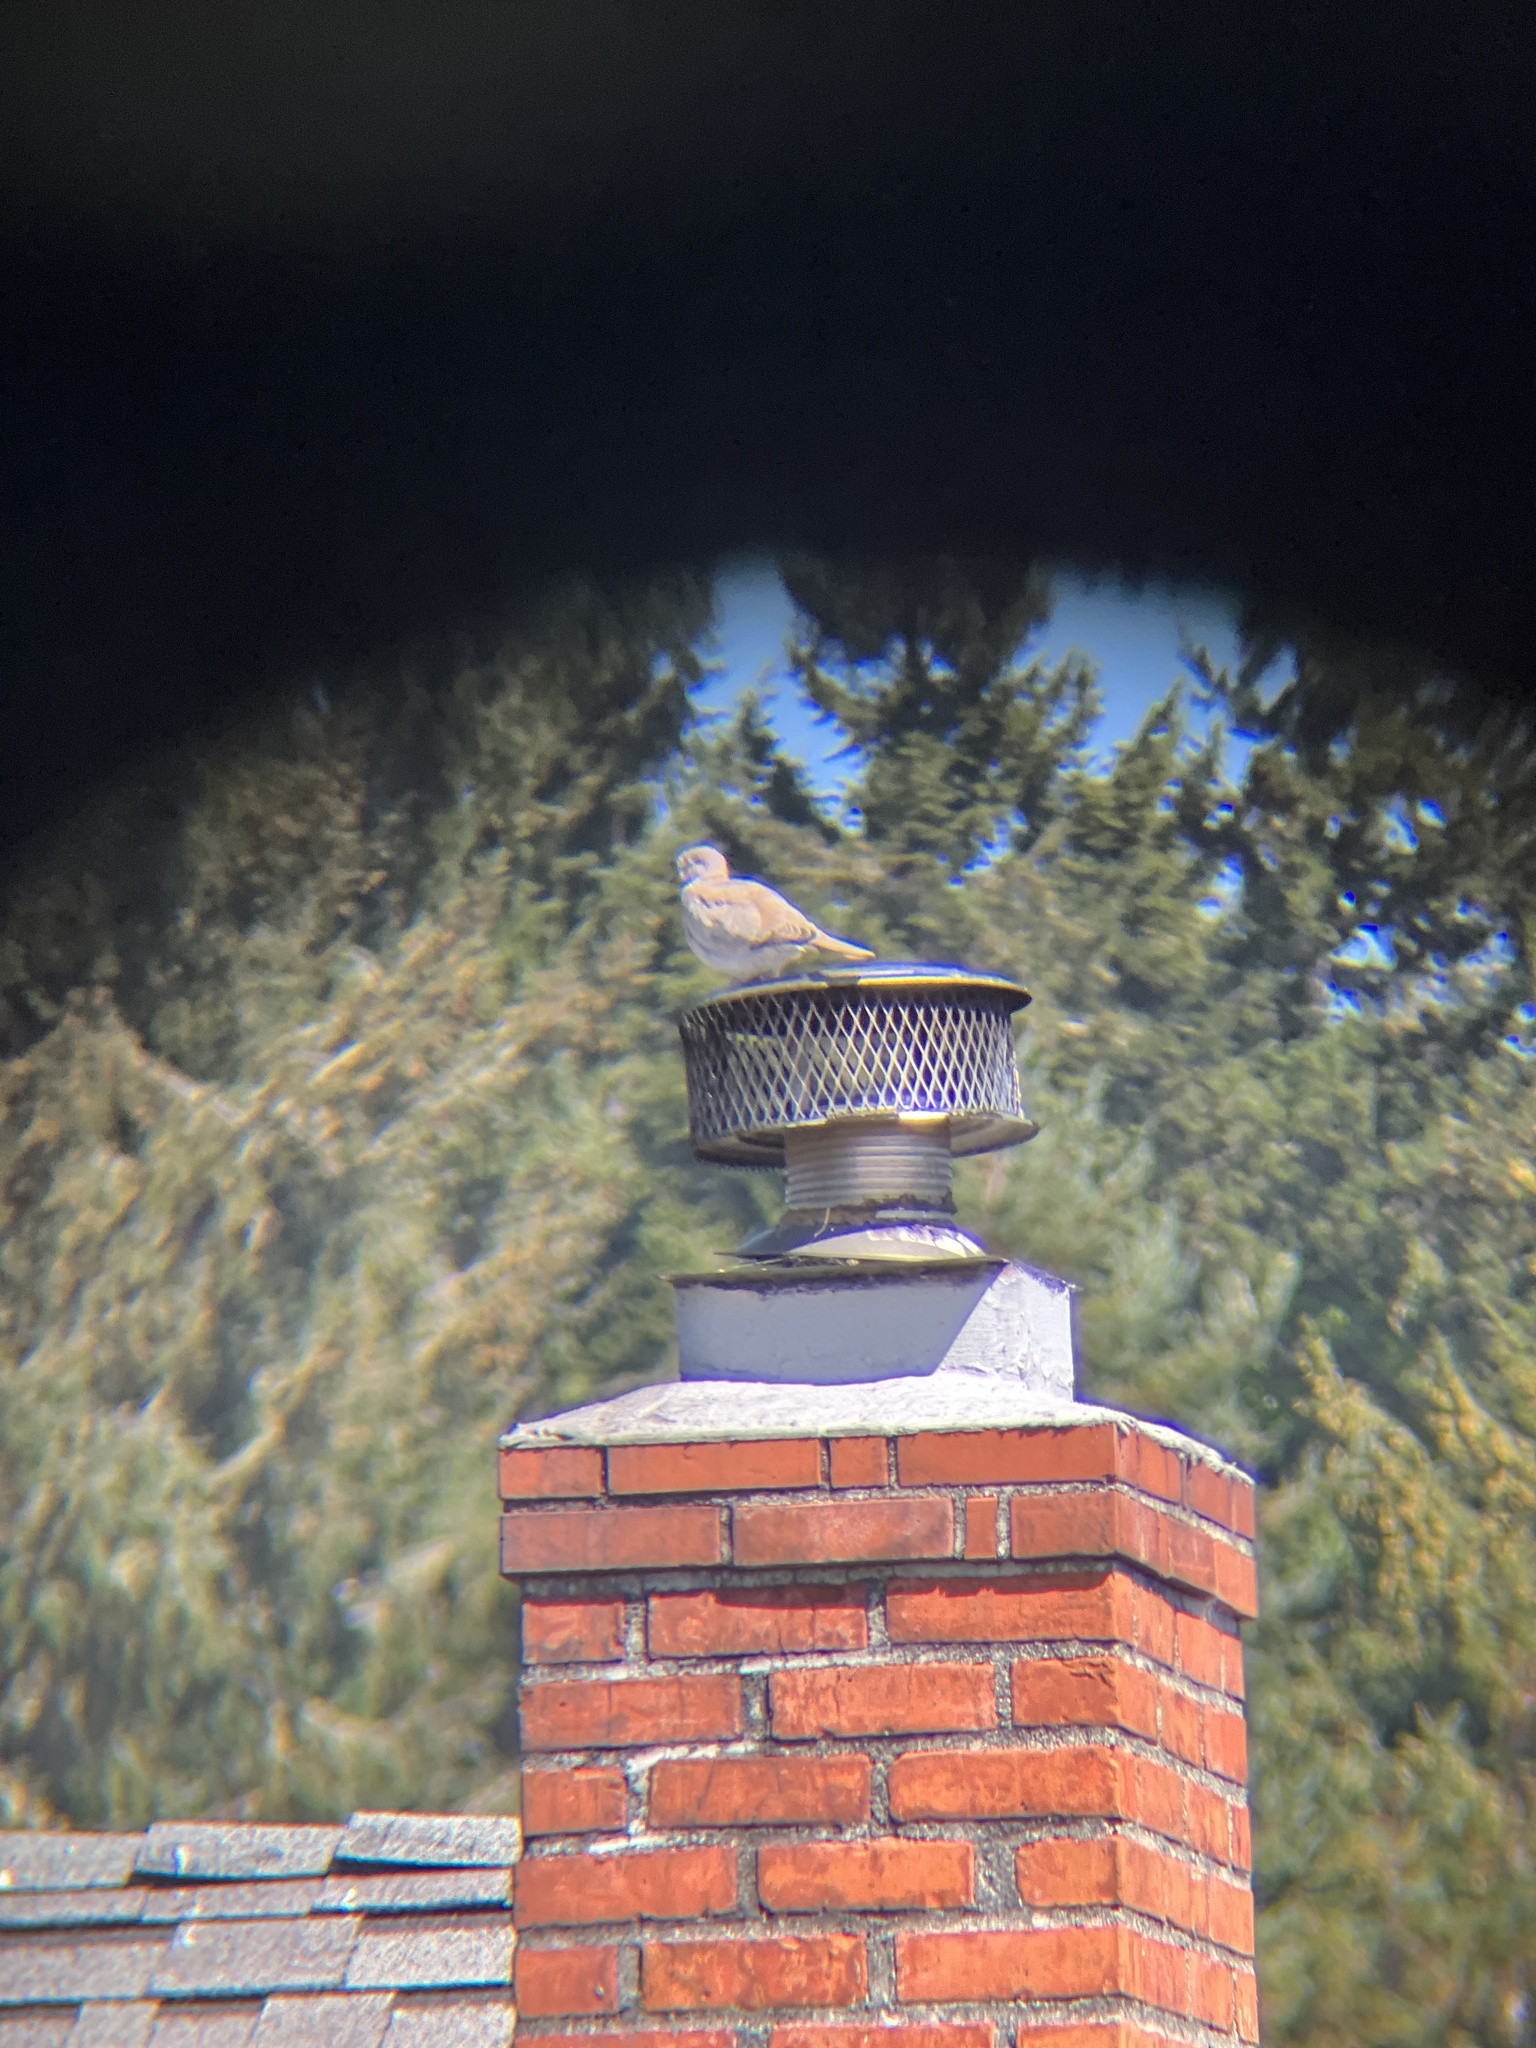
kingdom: Animalia
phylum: Chordata
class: Aves
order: Columbiformes
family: Columbidae
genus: Streptopelia
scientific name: Streptopelia decaocto
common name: Eurasian collared dove
